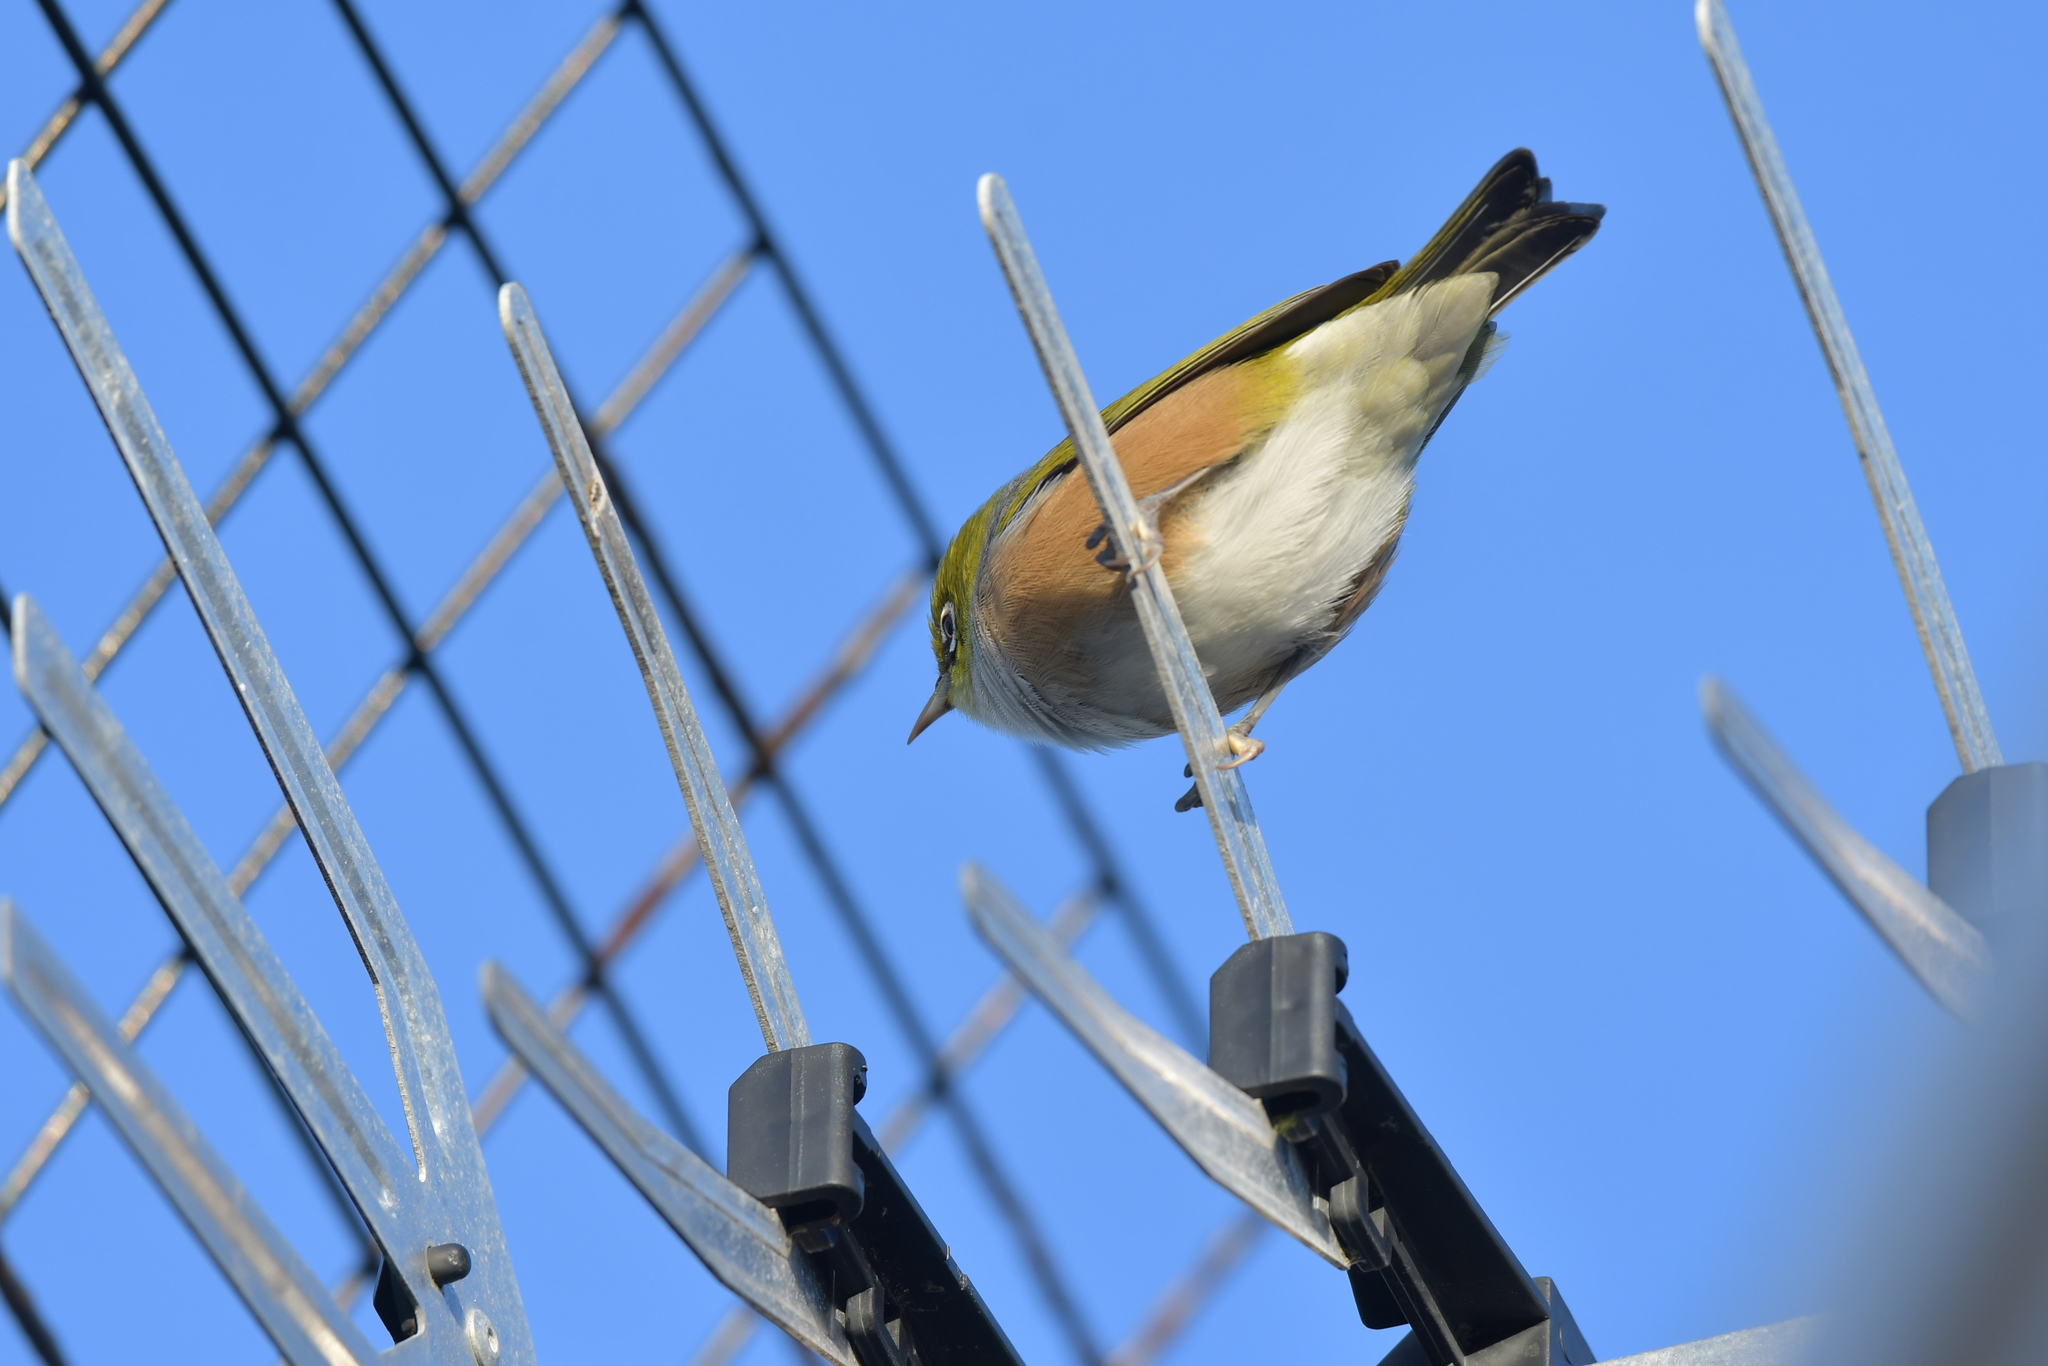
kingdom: Animalia
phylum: Chordata
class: Aves
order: Passeriformes
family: Zosteropidae
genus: Zosterops
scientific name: Zosterops lateralis
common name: Silvereye
